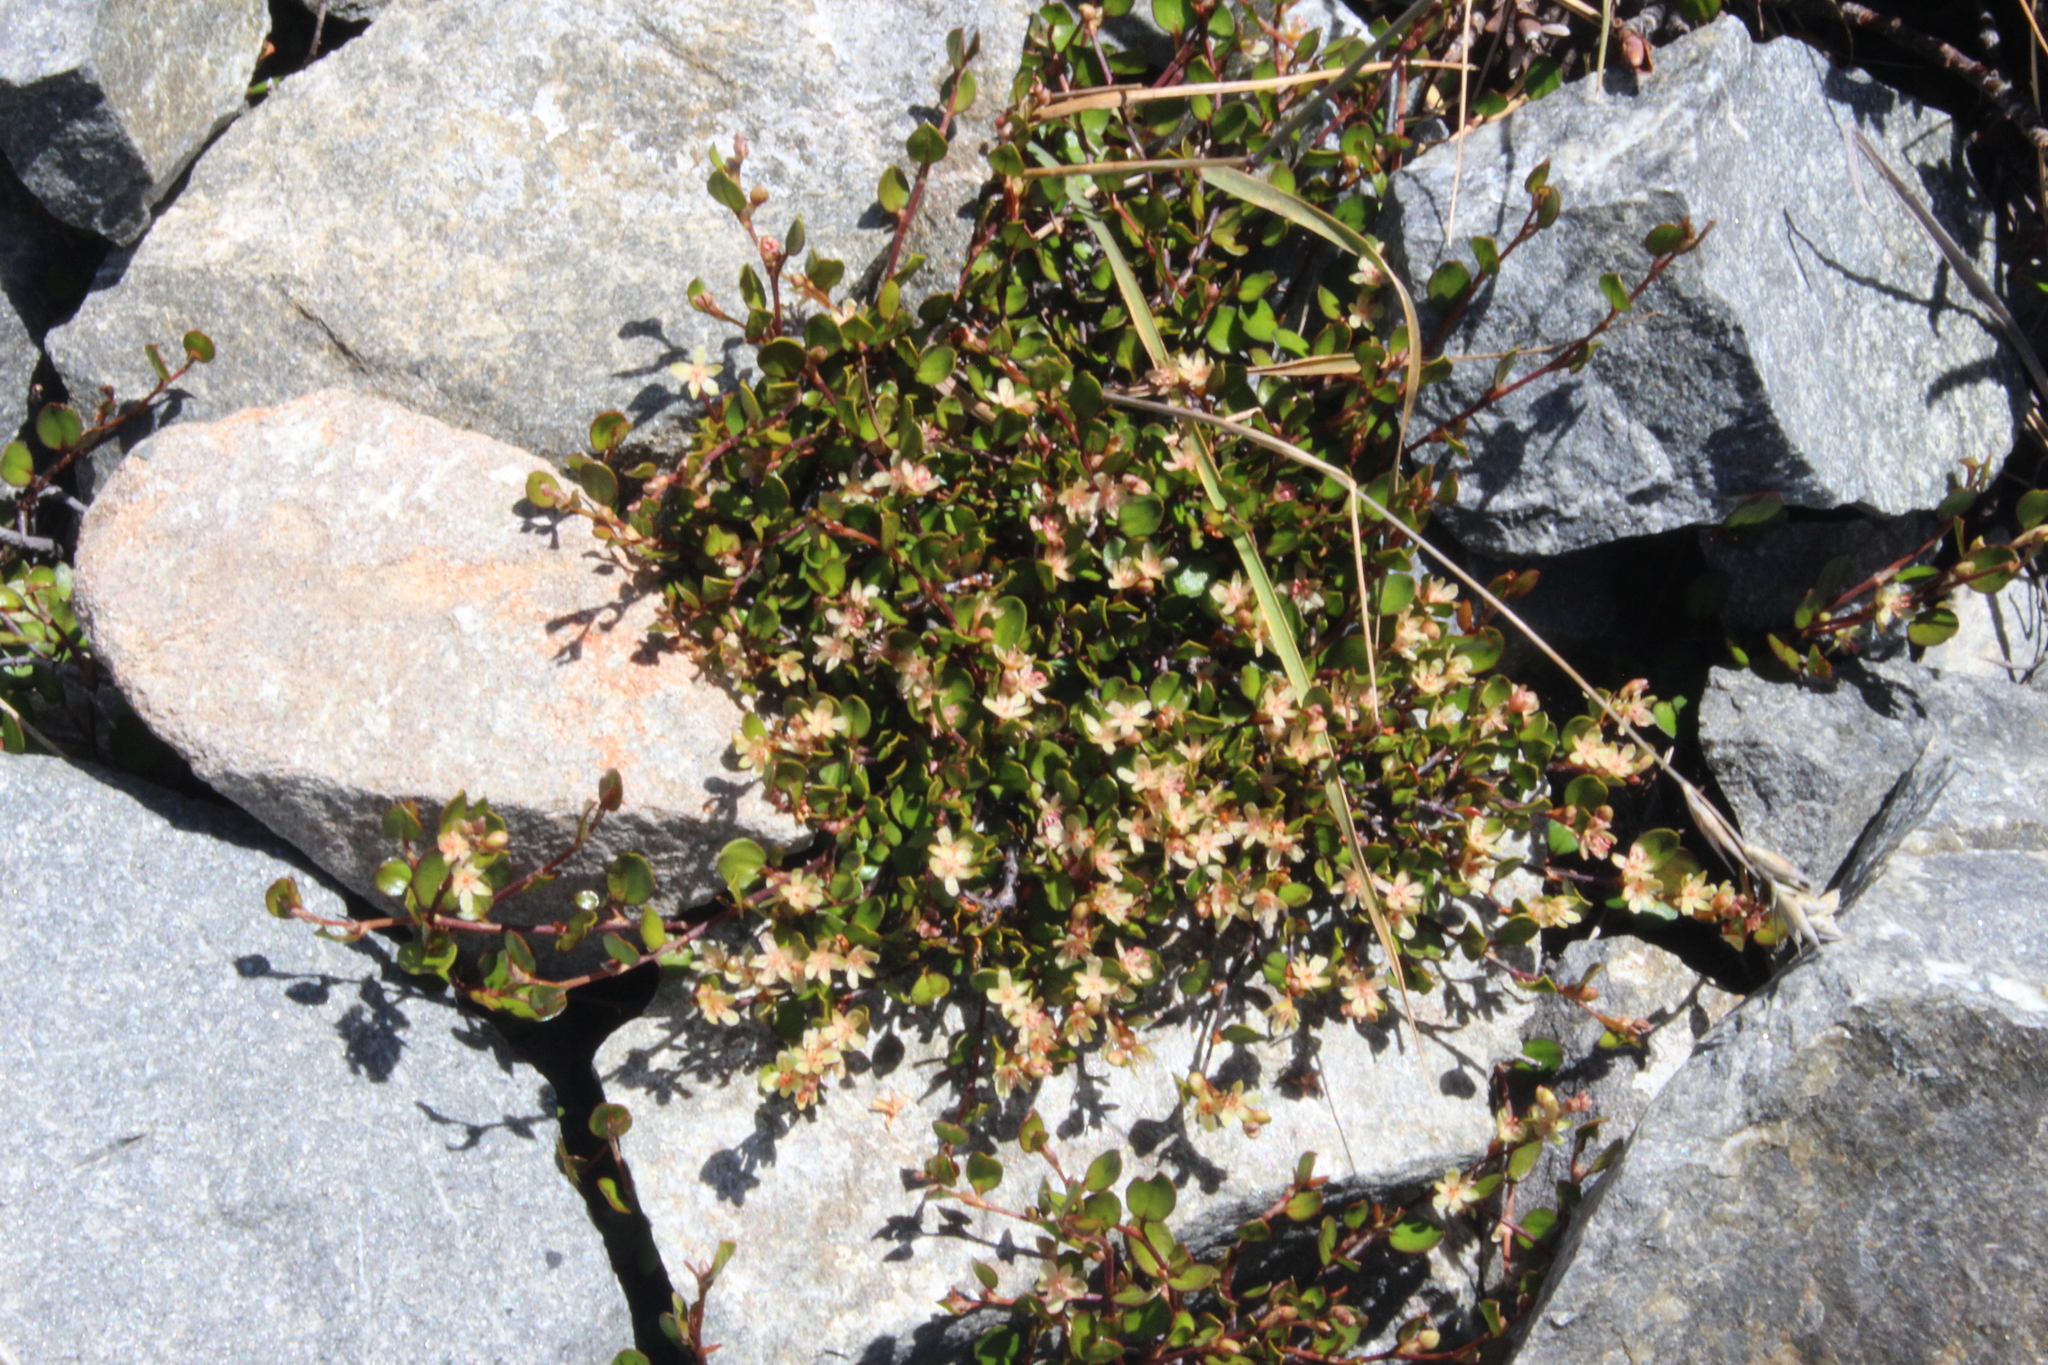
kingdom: Plantae
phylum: Tracheophyta
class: Magnoliopsida
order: Caryophyllales
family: Polygonaceae
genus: Muehlenbeckia
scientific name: Muehlenbeckia axillaris
